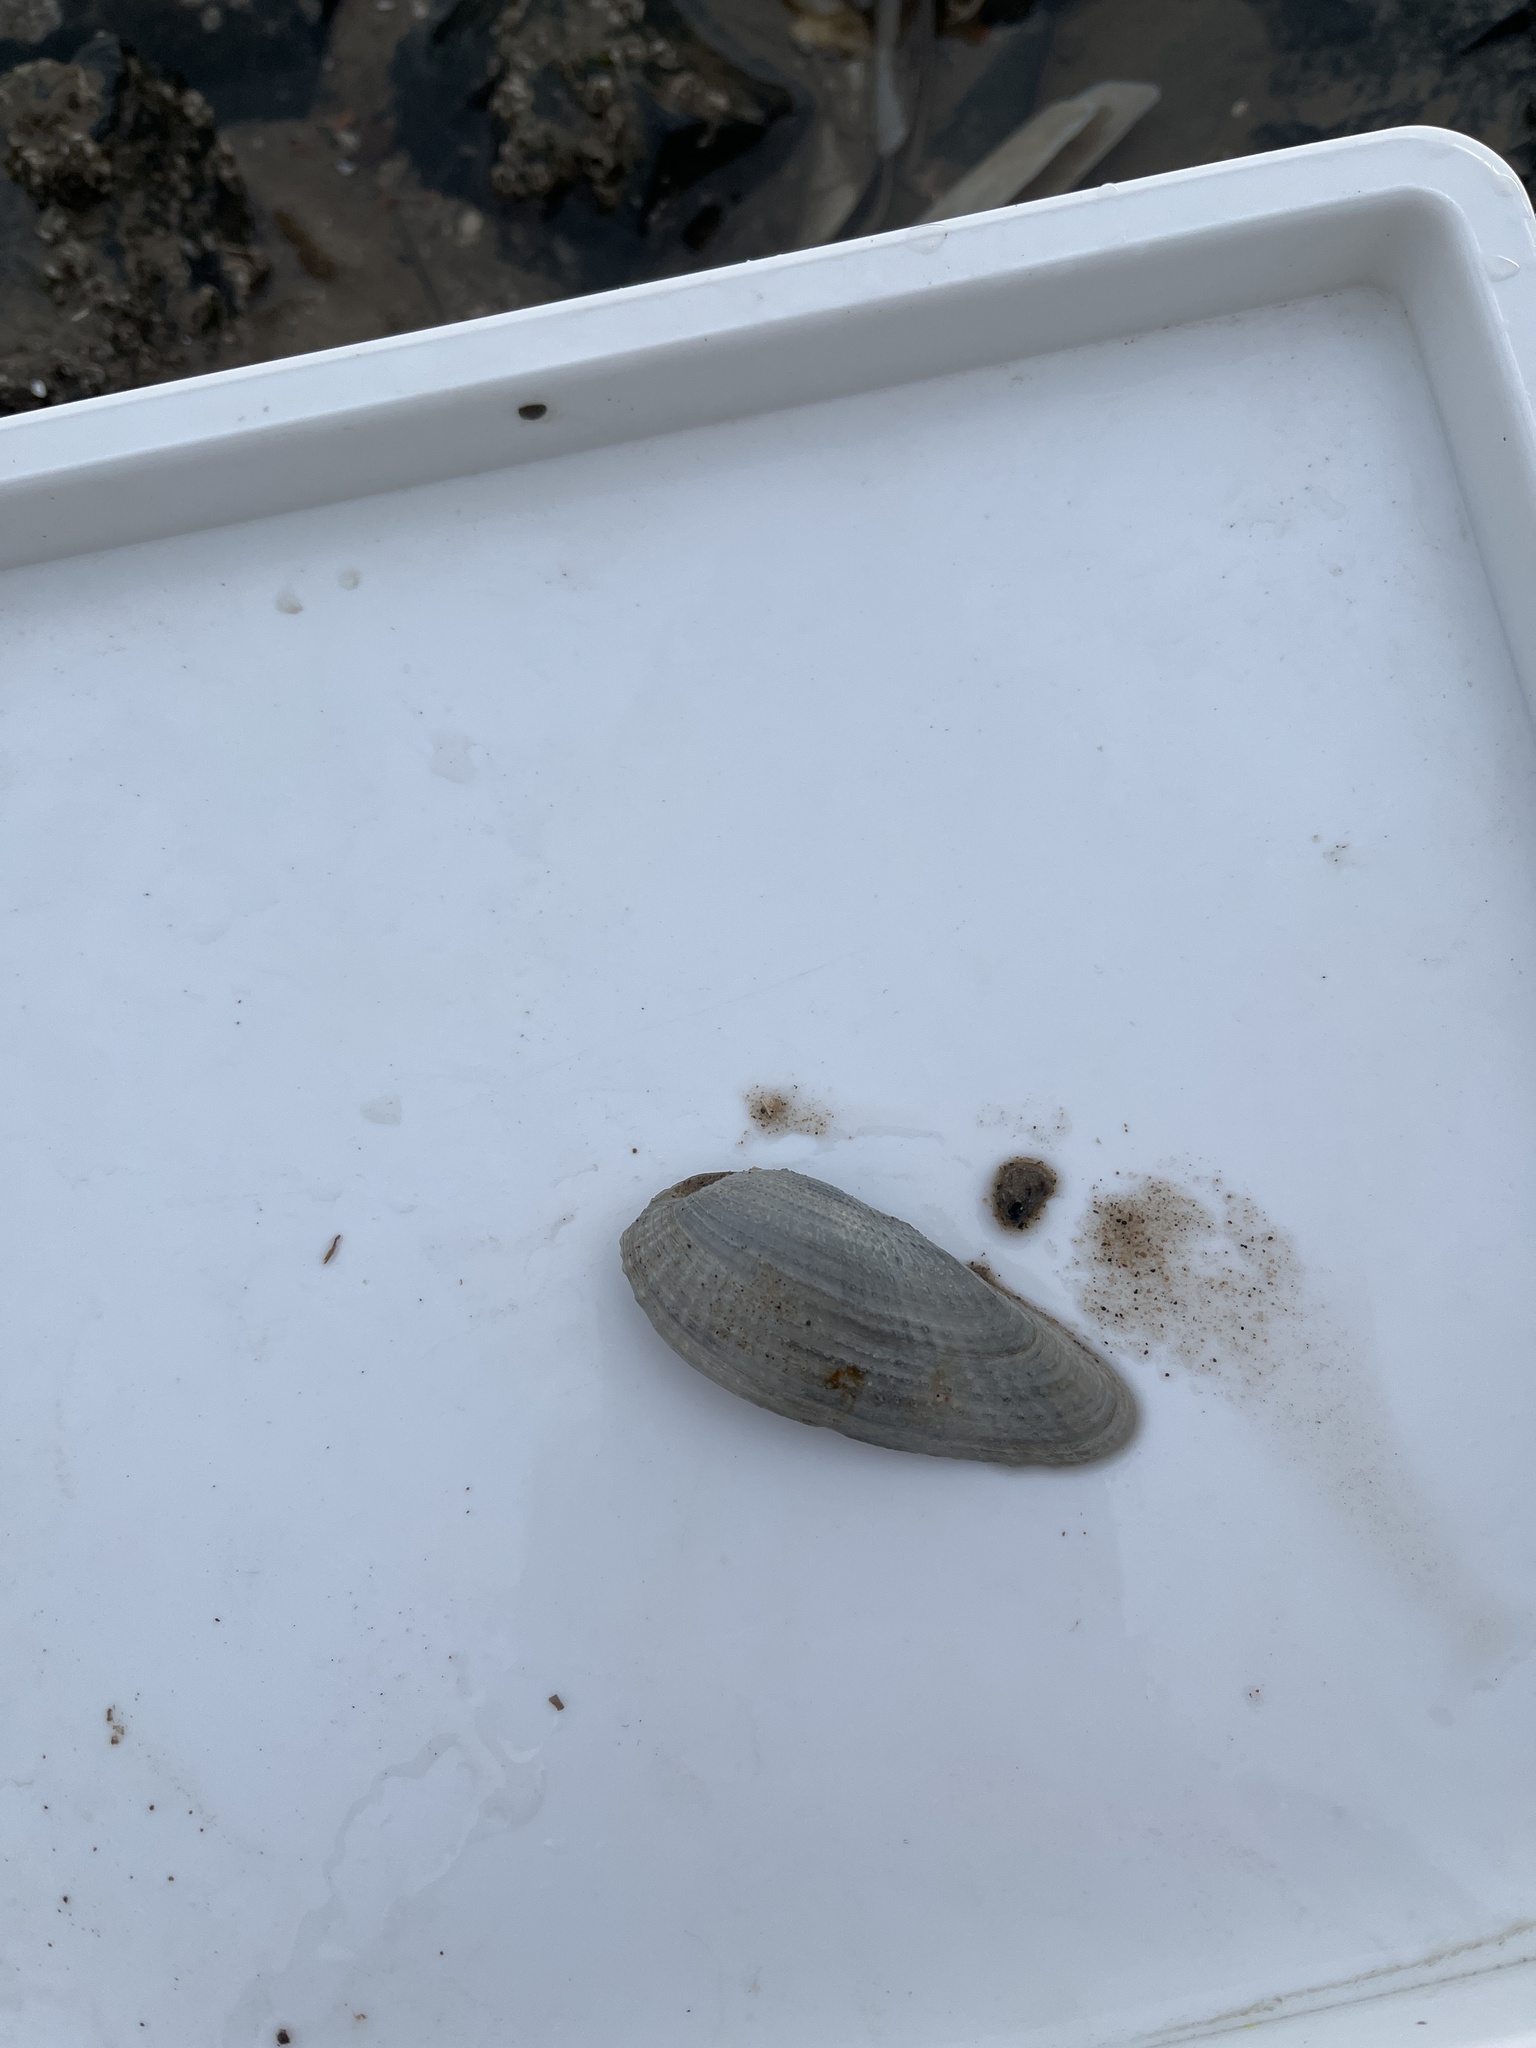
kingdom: Animalia
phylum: Mollusca
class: Bivalvia
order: Myida
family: Pholadidae
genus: Barnea
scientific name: Barnea candida
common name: White piddock
